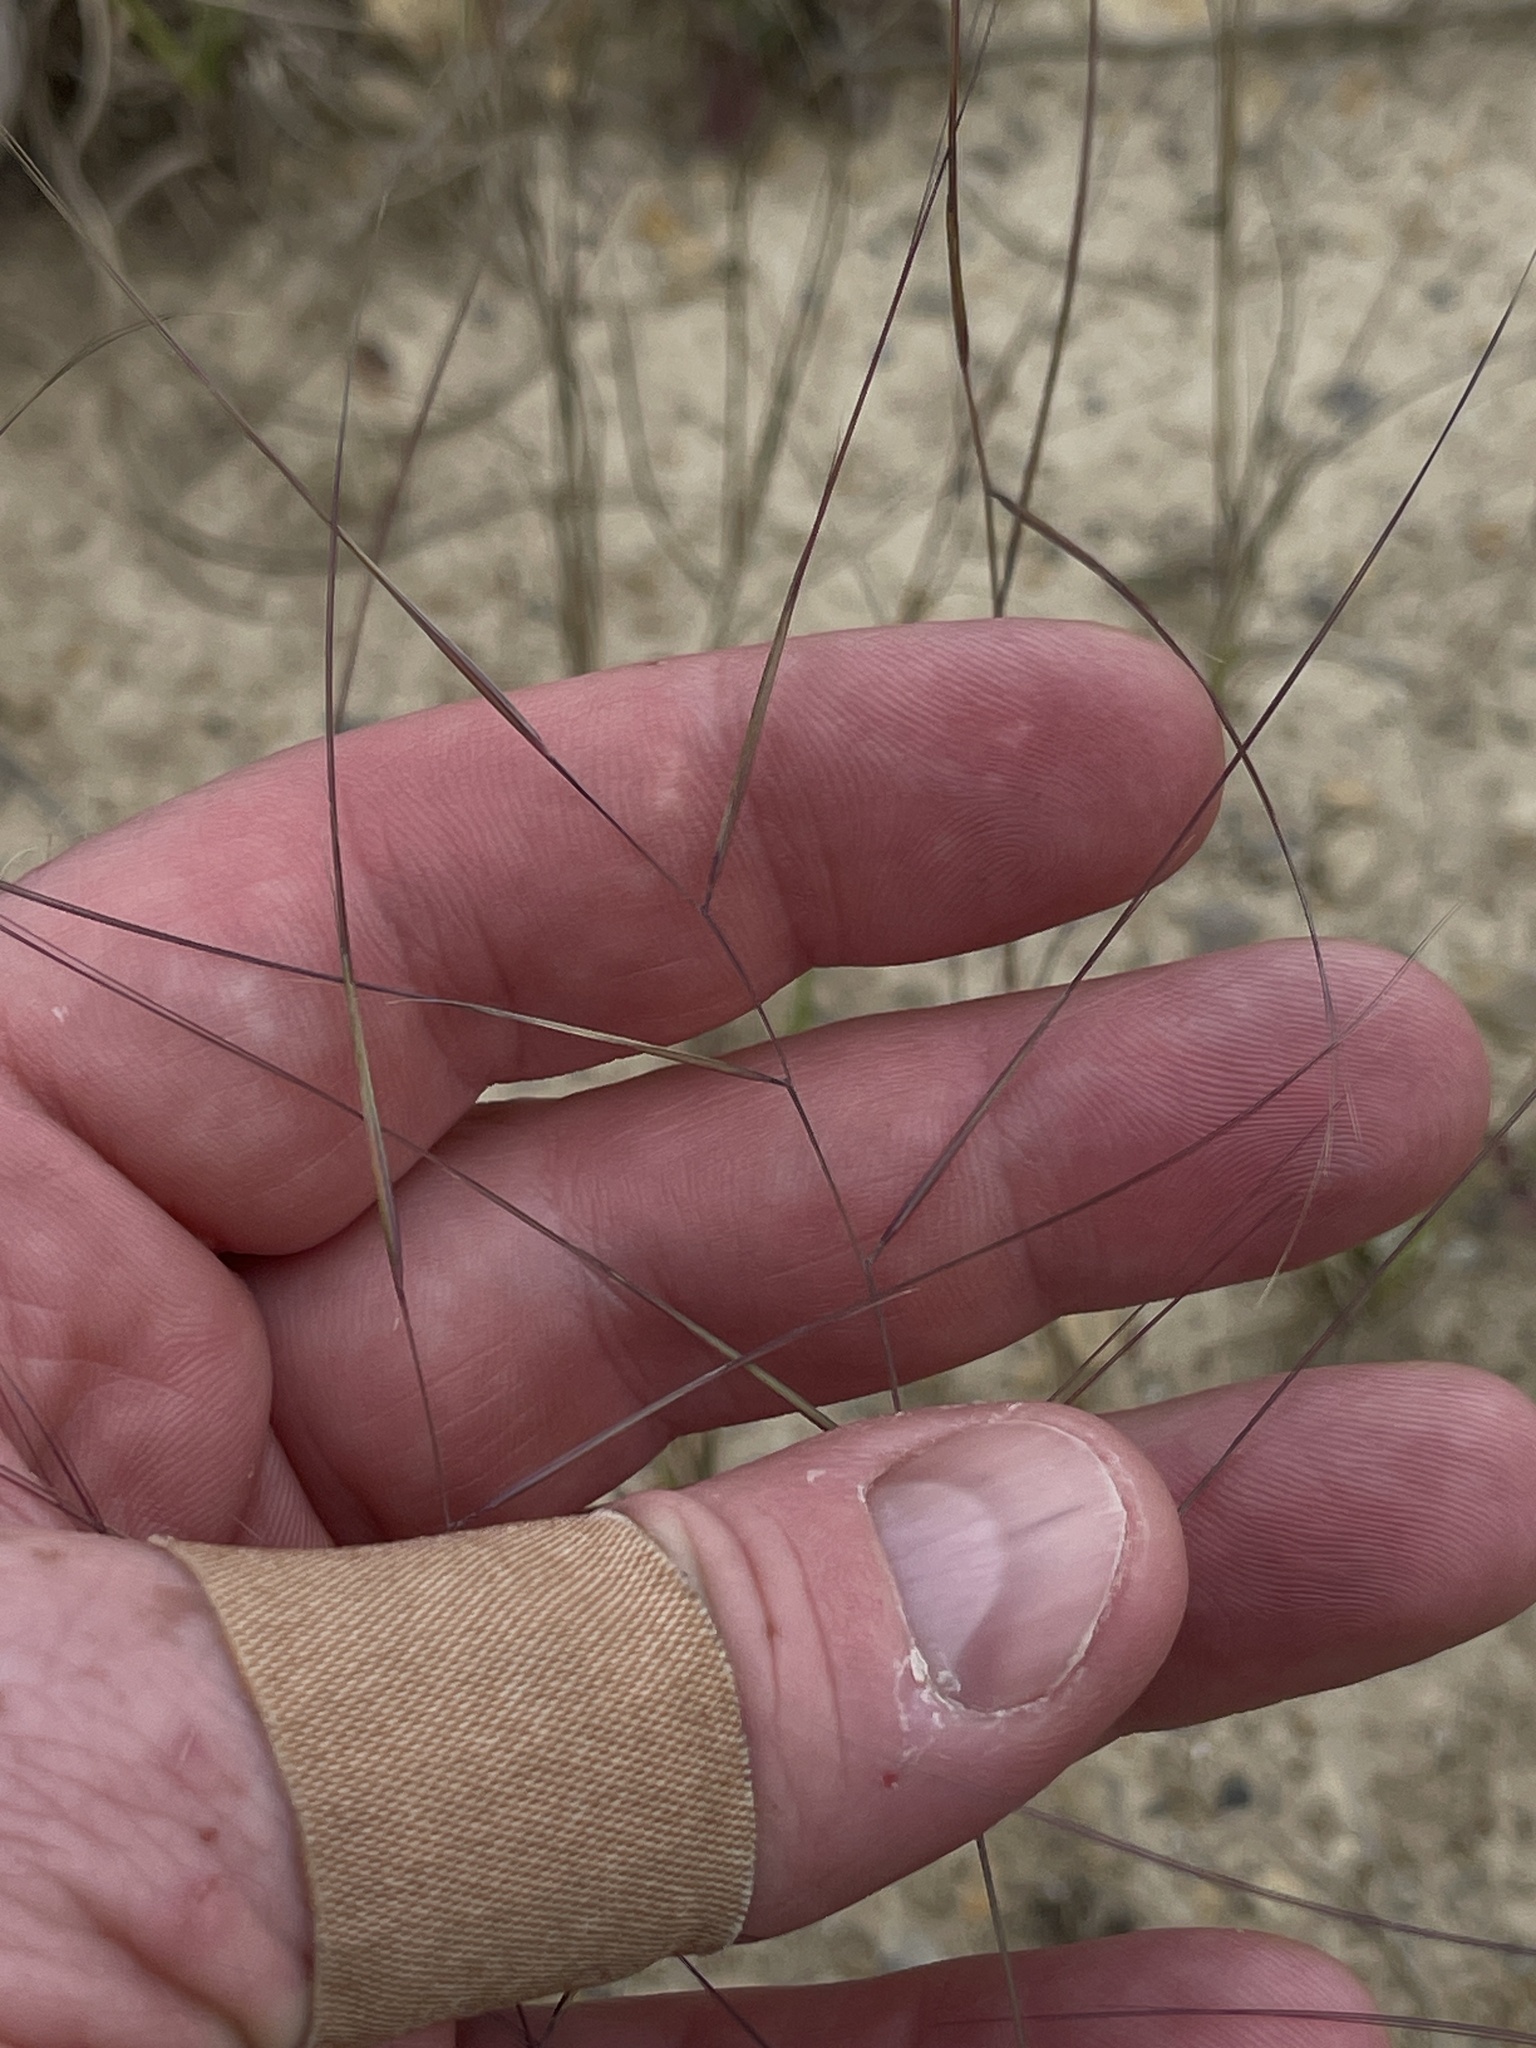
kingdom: Plantae
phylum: Tracheophyta
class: Liliopsida
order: Poales
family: Poaceae
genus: Aristida
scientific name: Aristida oligantha
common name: Few-flowered aristida
